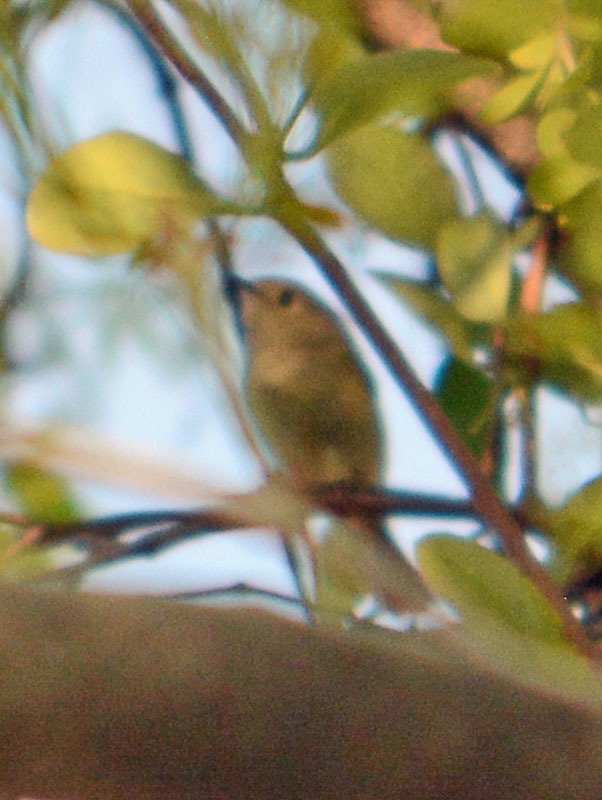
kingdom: Animalia
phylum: Chordata
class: Aves
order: Passeriformes
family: Regulidae
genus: Regulus
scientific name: Regulus calendula
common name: Ruby-crowned kinglet
